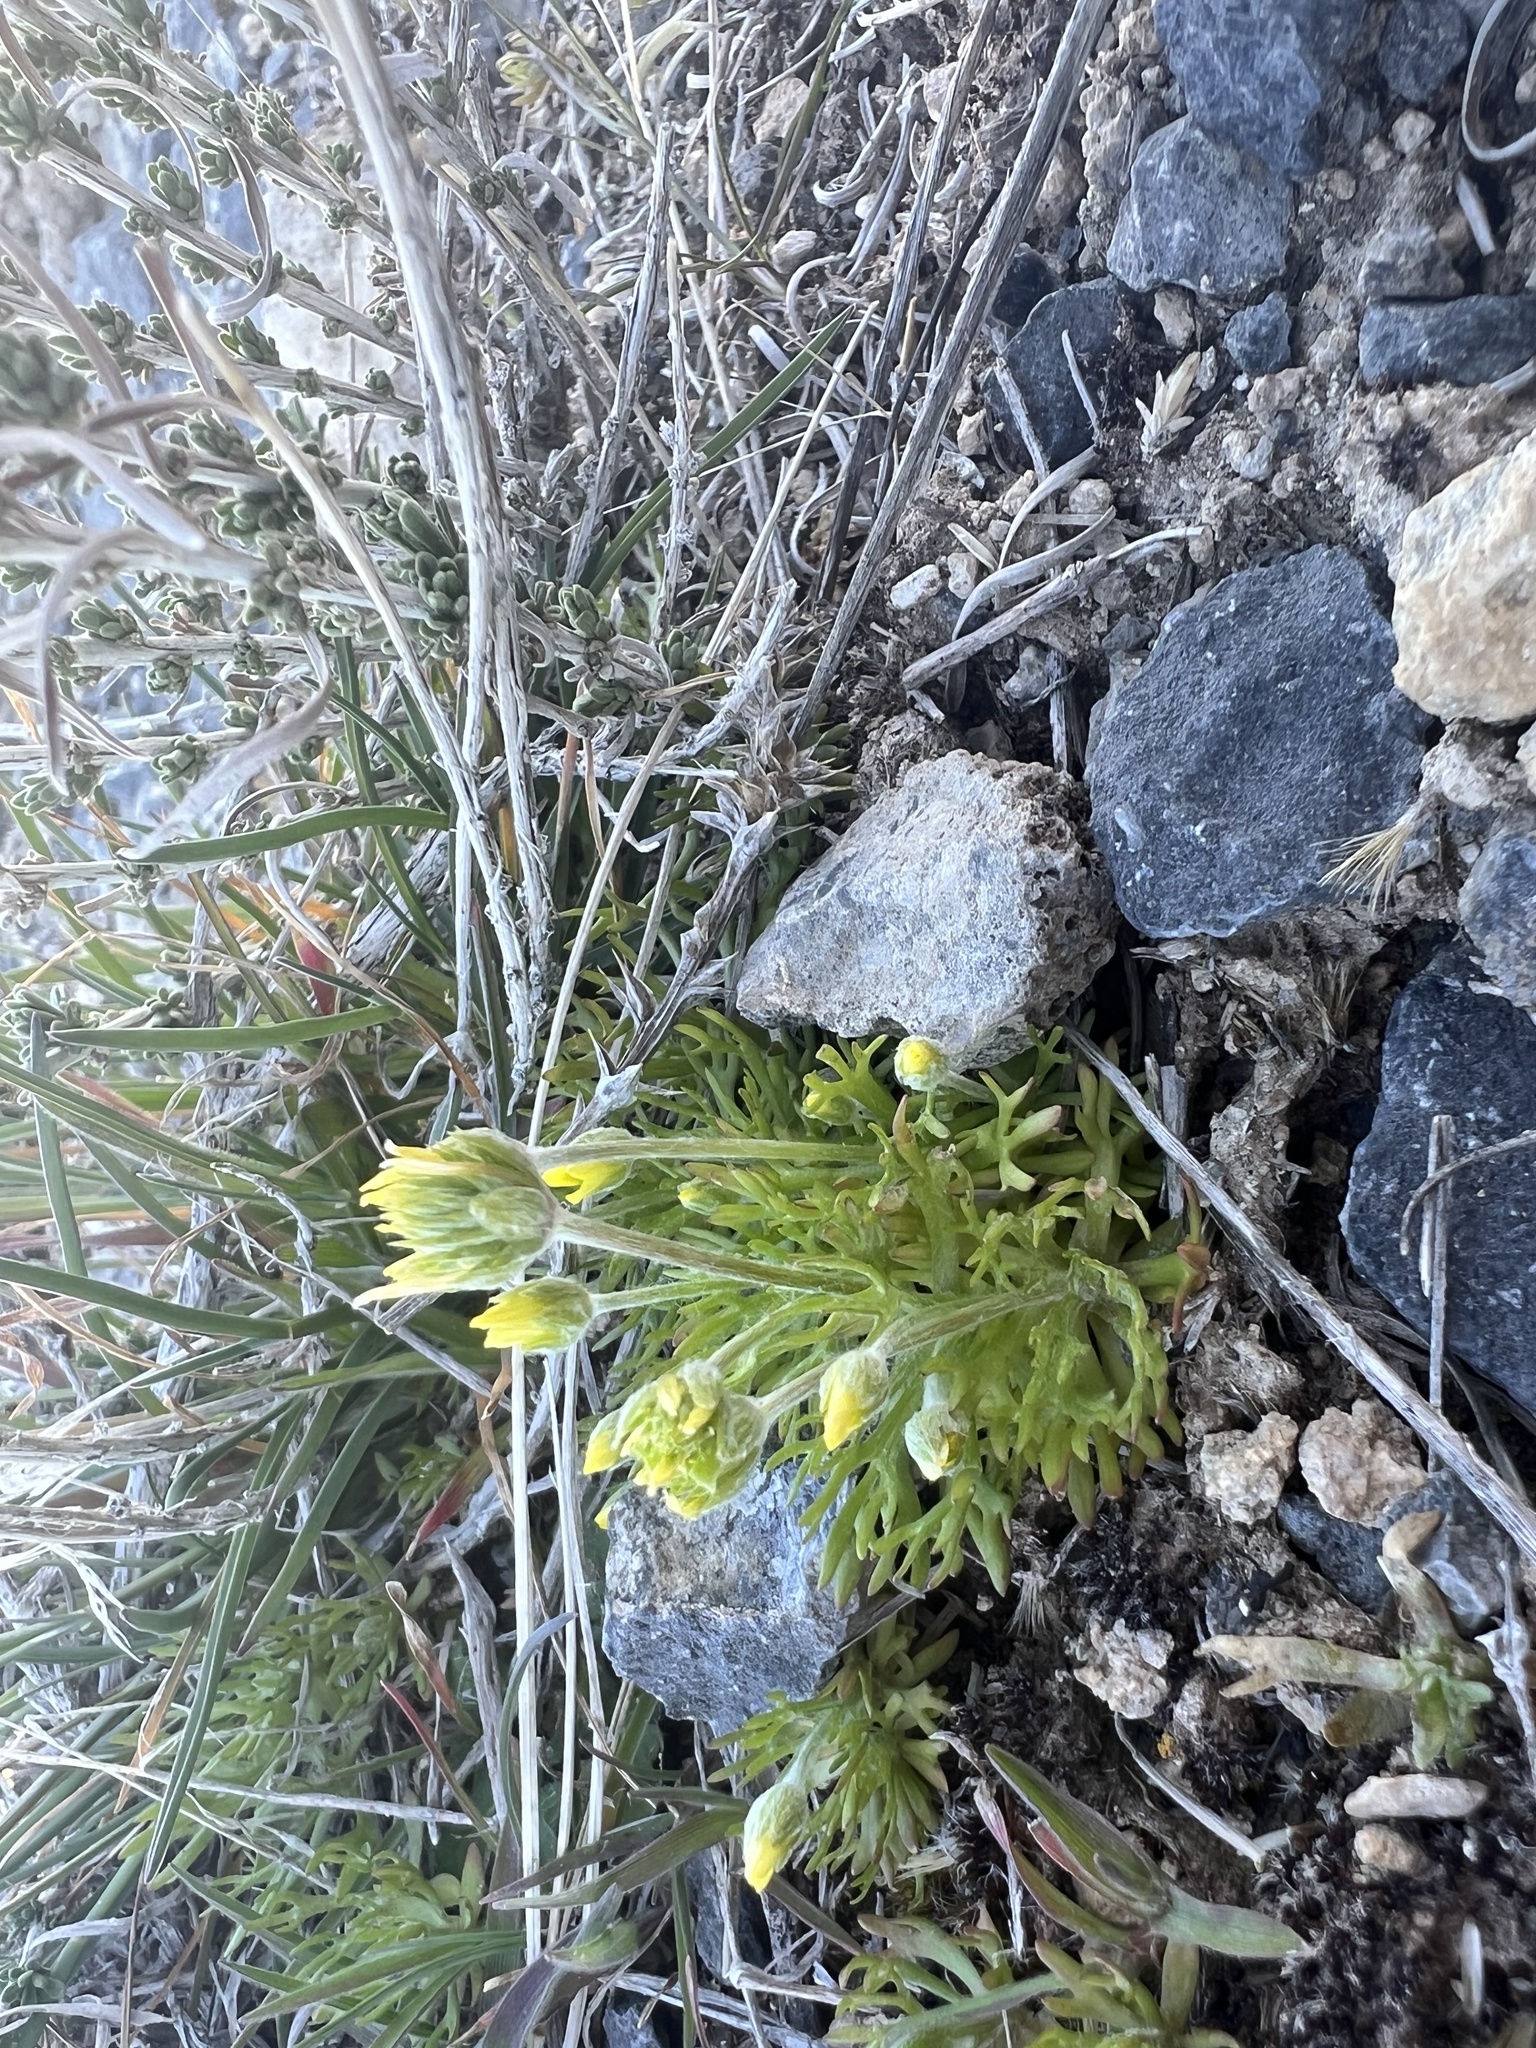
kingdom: Plantae
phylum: Tracheophyta
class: Magnoliopsida
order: Ranunculales
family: Ranunculaceae
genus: Ceratocephala
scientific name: Ceratocephala orthoceras
